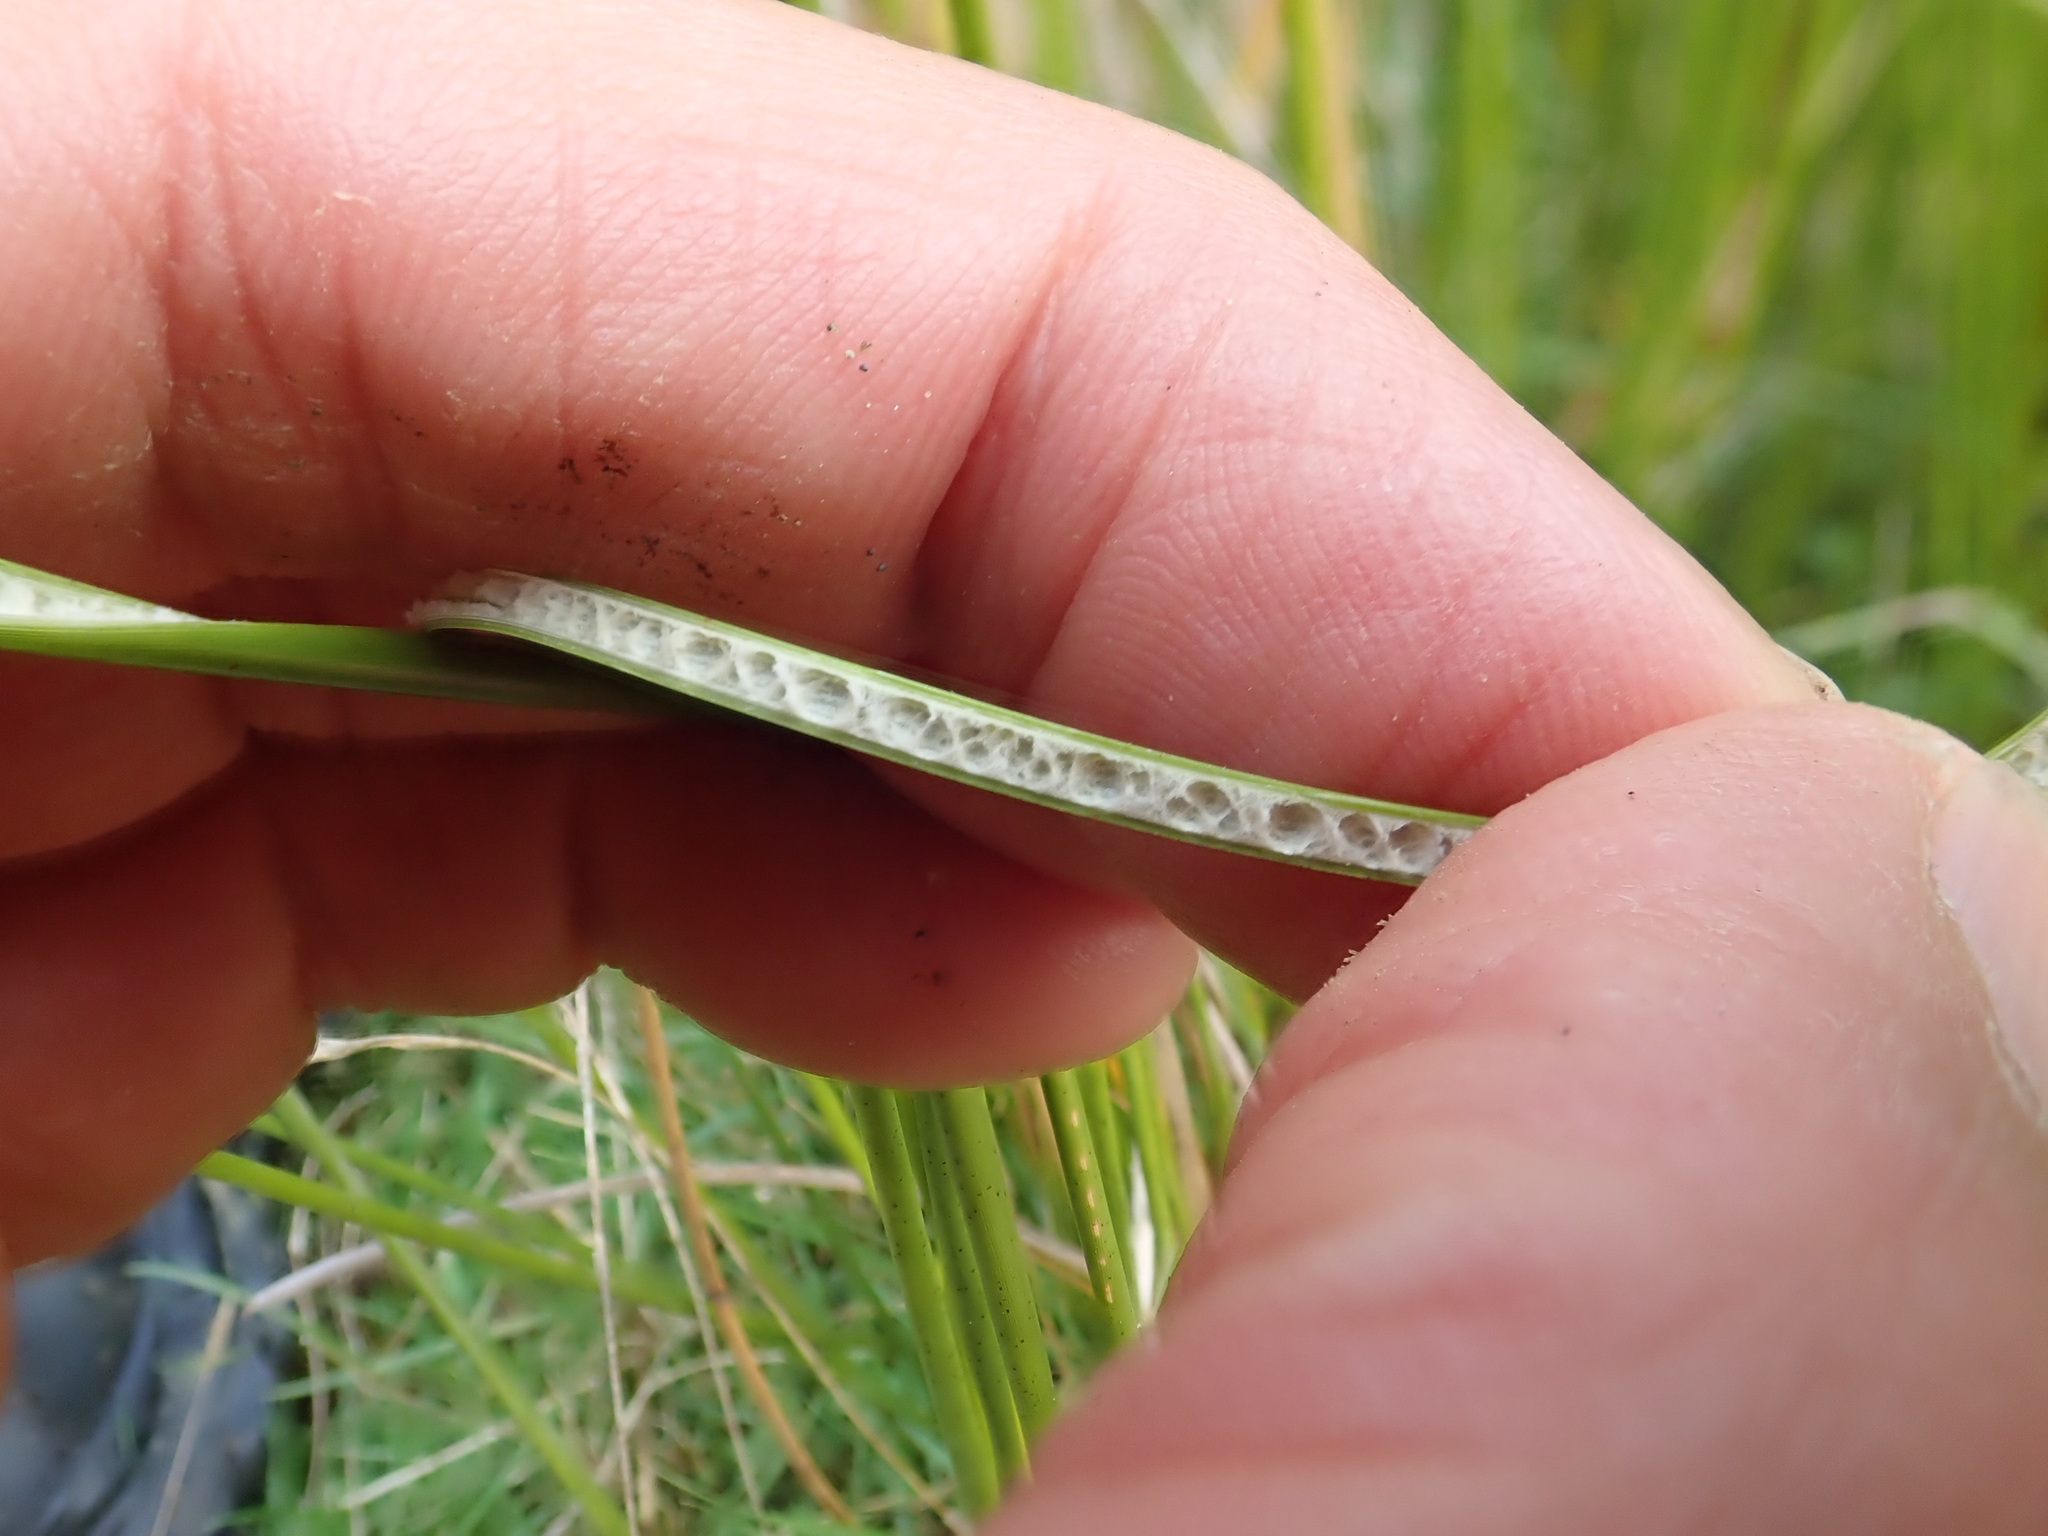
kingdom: Plantae
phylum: Tracheophyta
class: Liliopsida
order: Poales
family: Juncaceae
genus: Juncus
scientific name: Juncus edgariae
